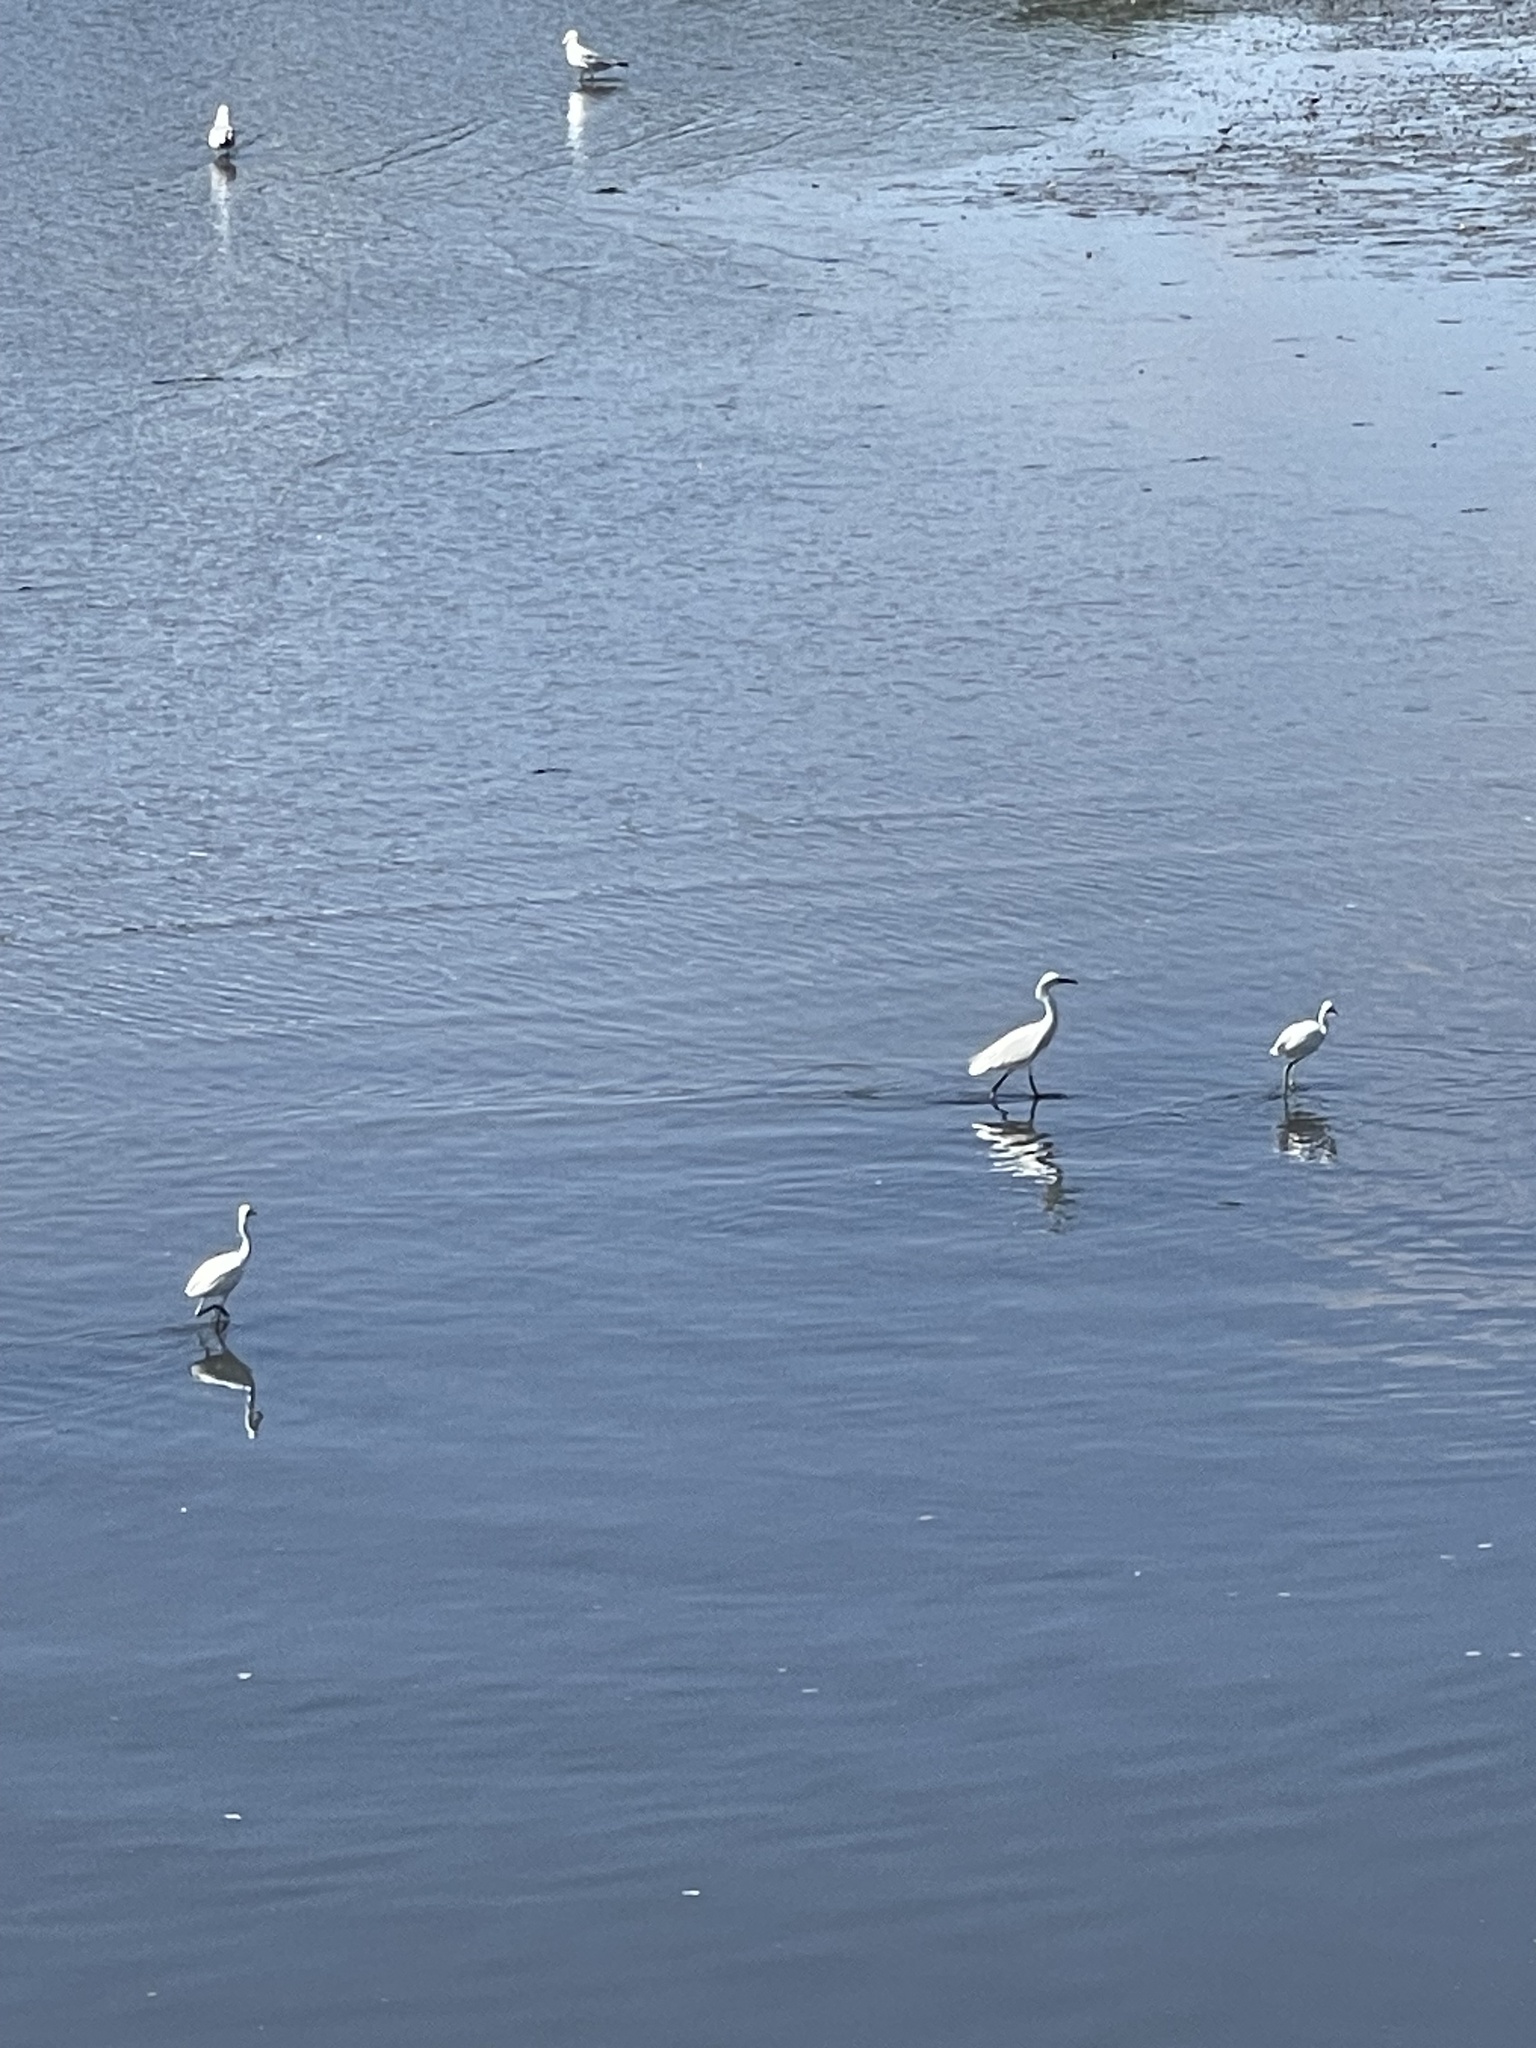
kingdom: Animalia
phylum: Chordata
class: Aves
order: Pelecaniformes
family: Ardeidae
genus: Egretta
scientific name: Egretta thula
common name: Snowy egret
